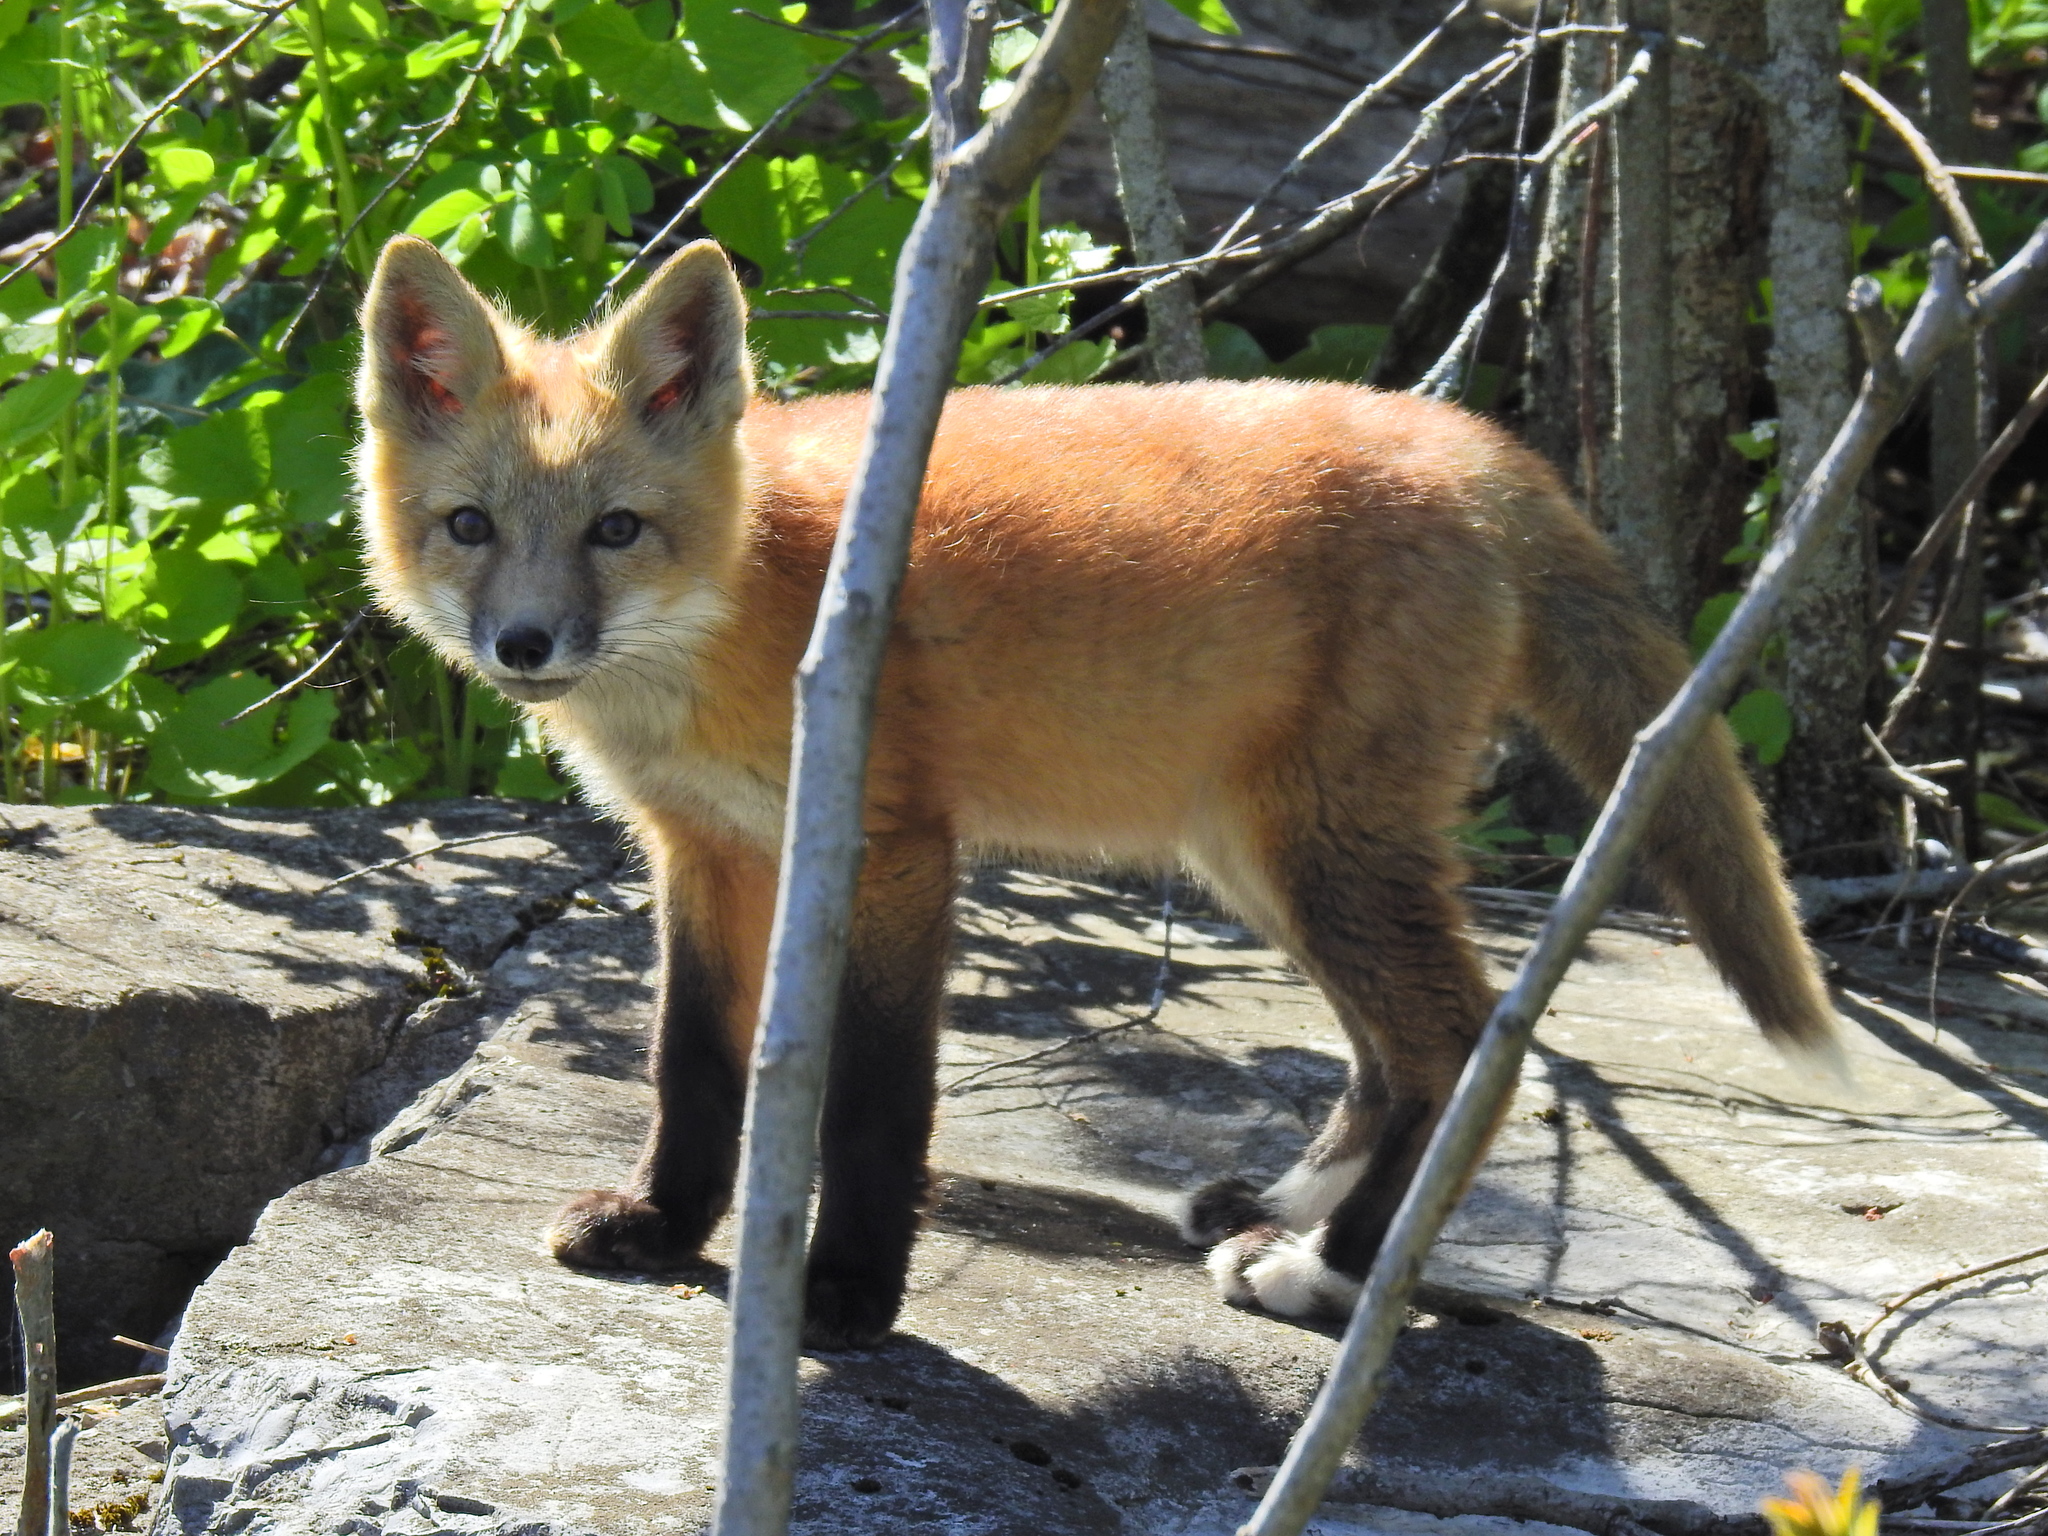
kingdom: Animalia
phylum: Chordata
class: Mammalia
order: Carnivora
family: Canidae
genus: Vulpes
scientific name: Vulpes vulpes
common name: Red fox
